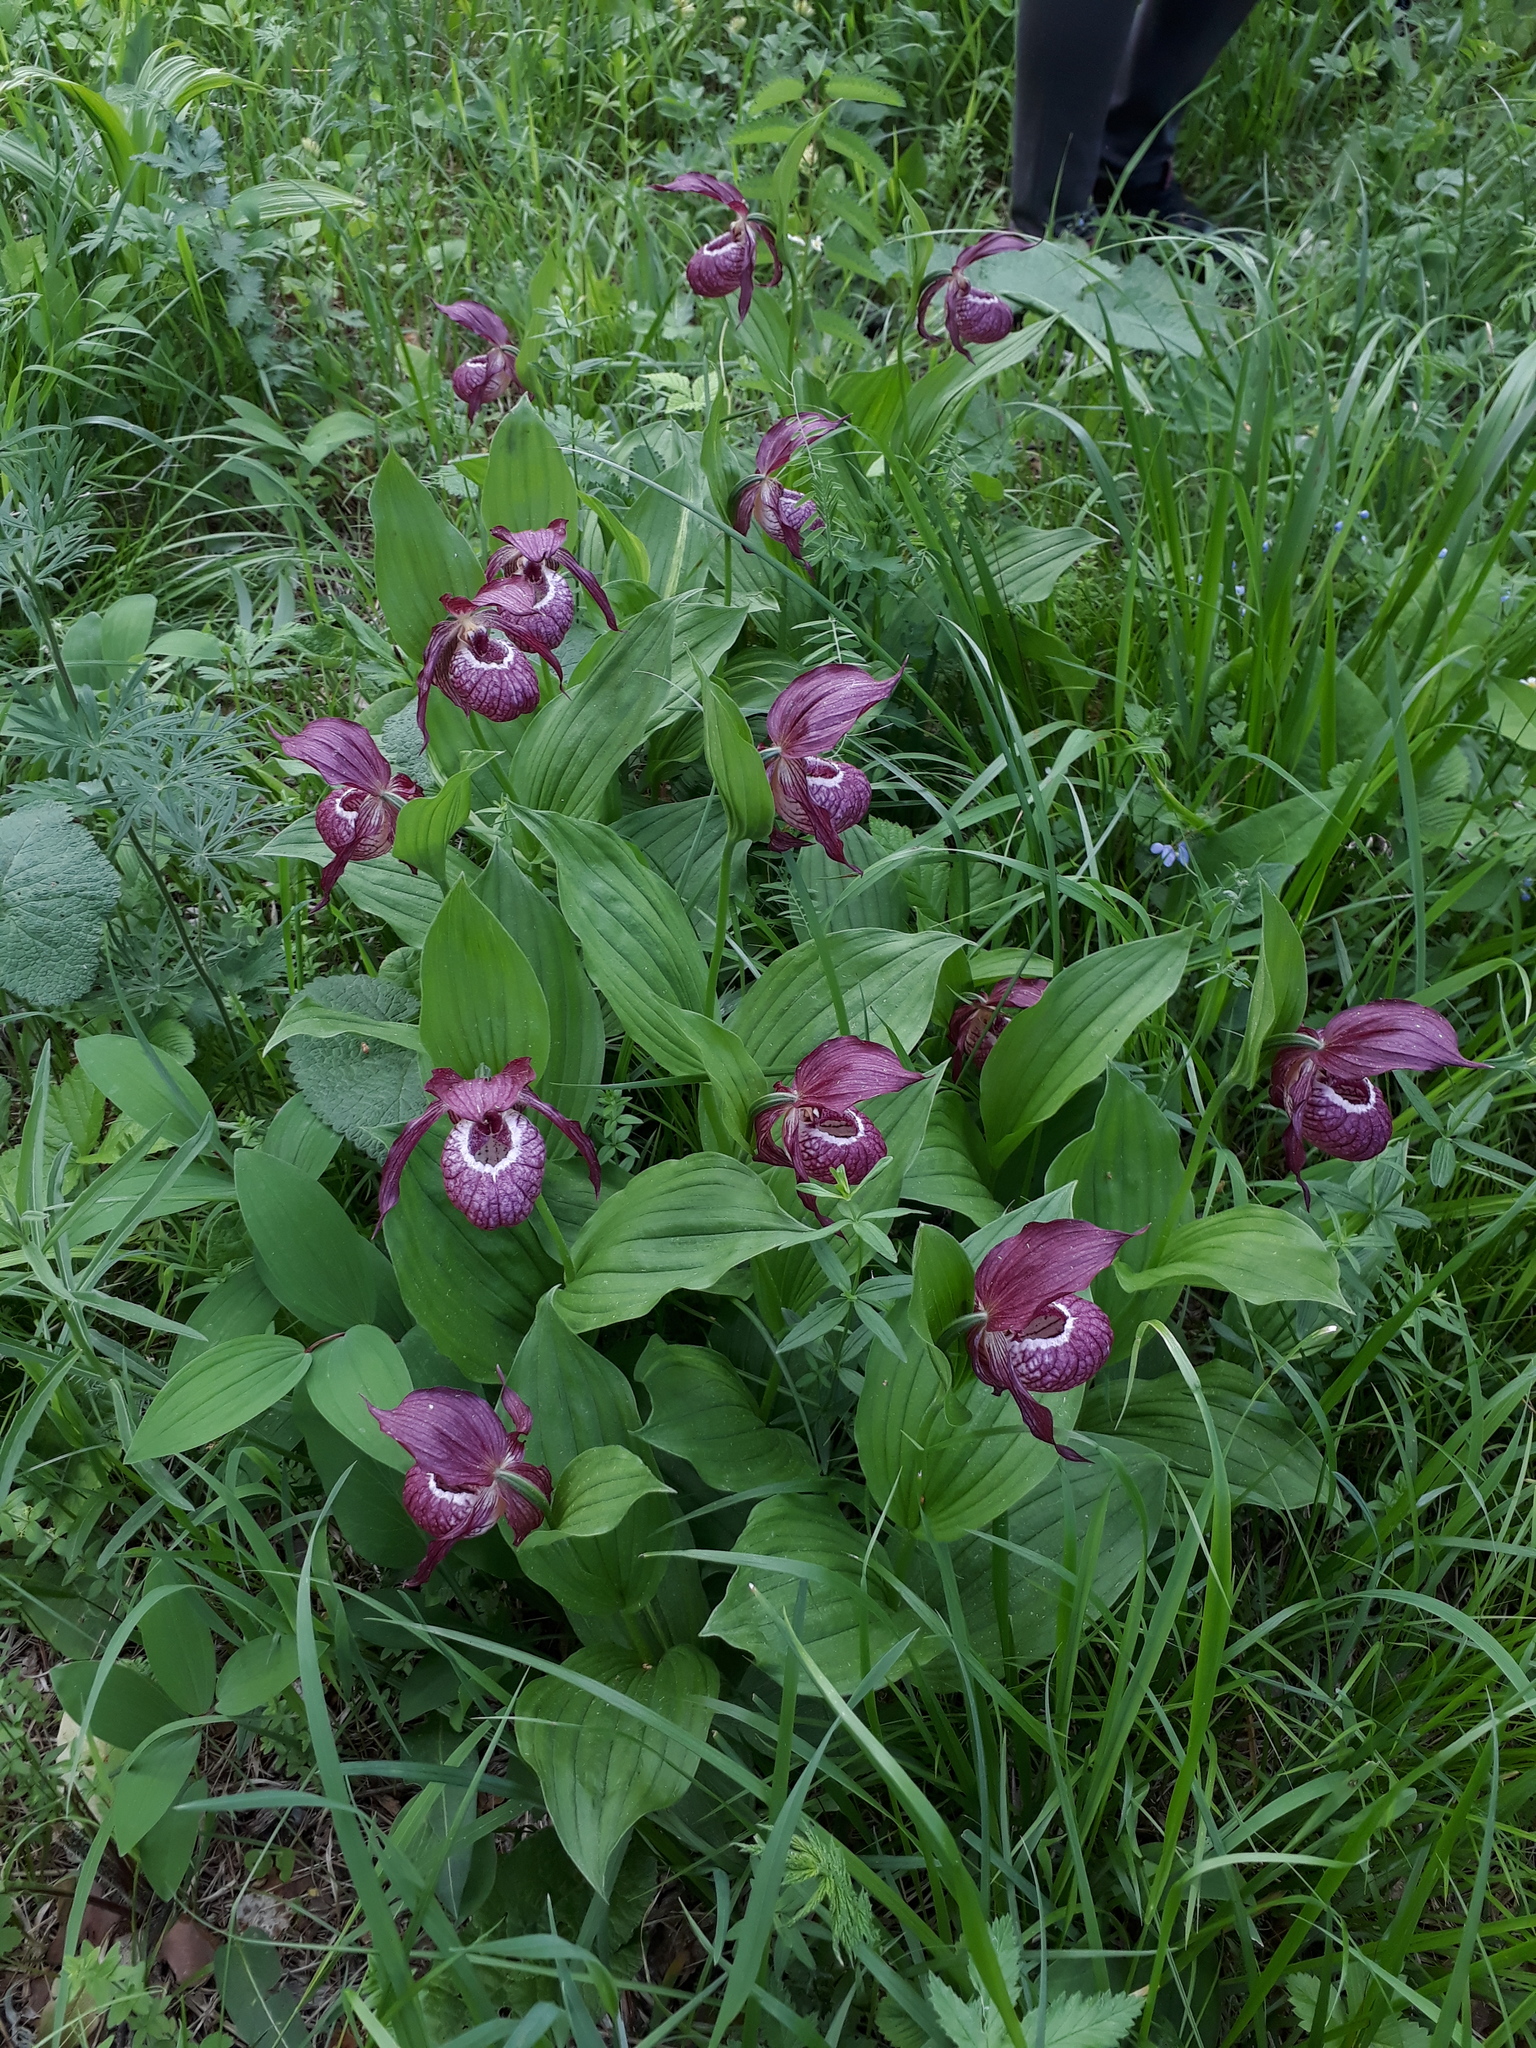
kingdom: Plantae
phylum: Tracheophyta
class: Liliopsida
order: Asparagales
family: Orchidaceae
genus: Cypripedium
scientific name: Cypripedium macranthos
